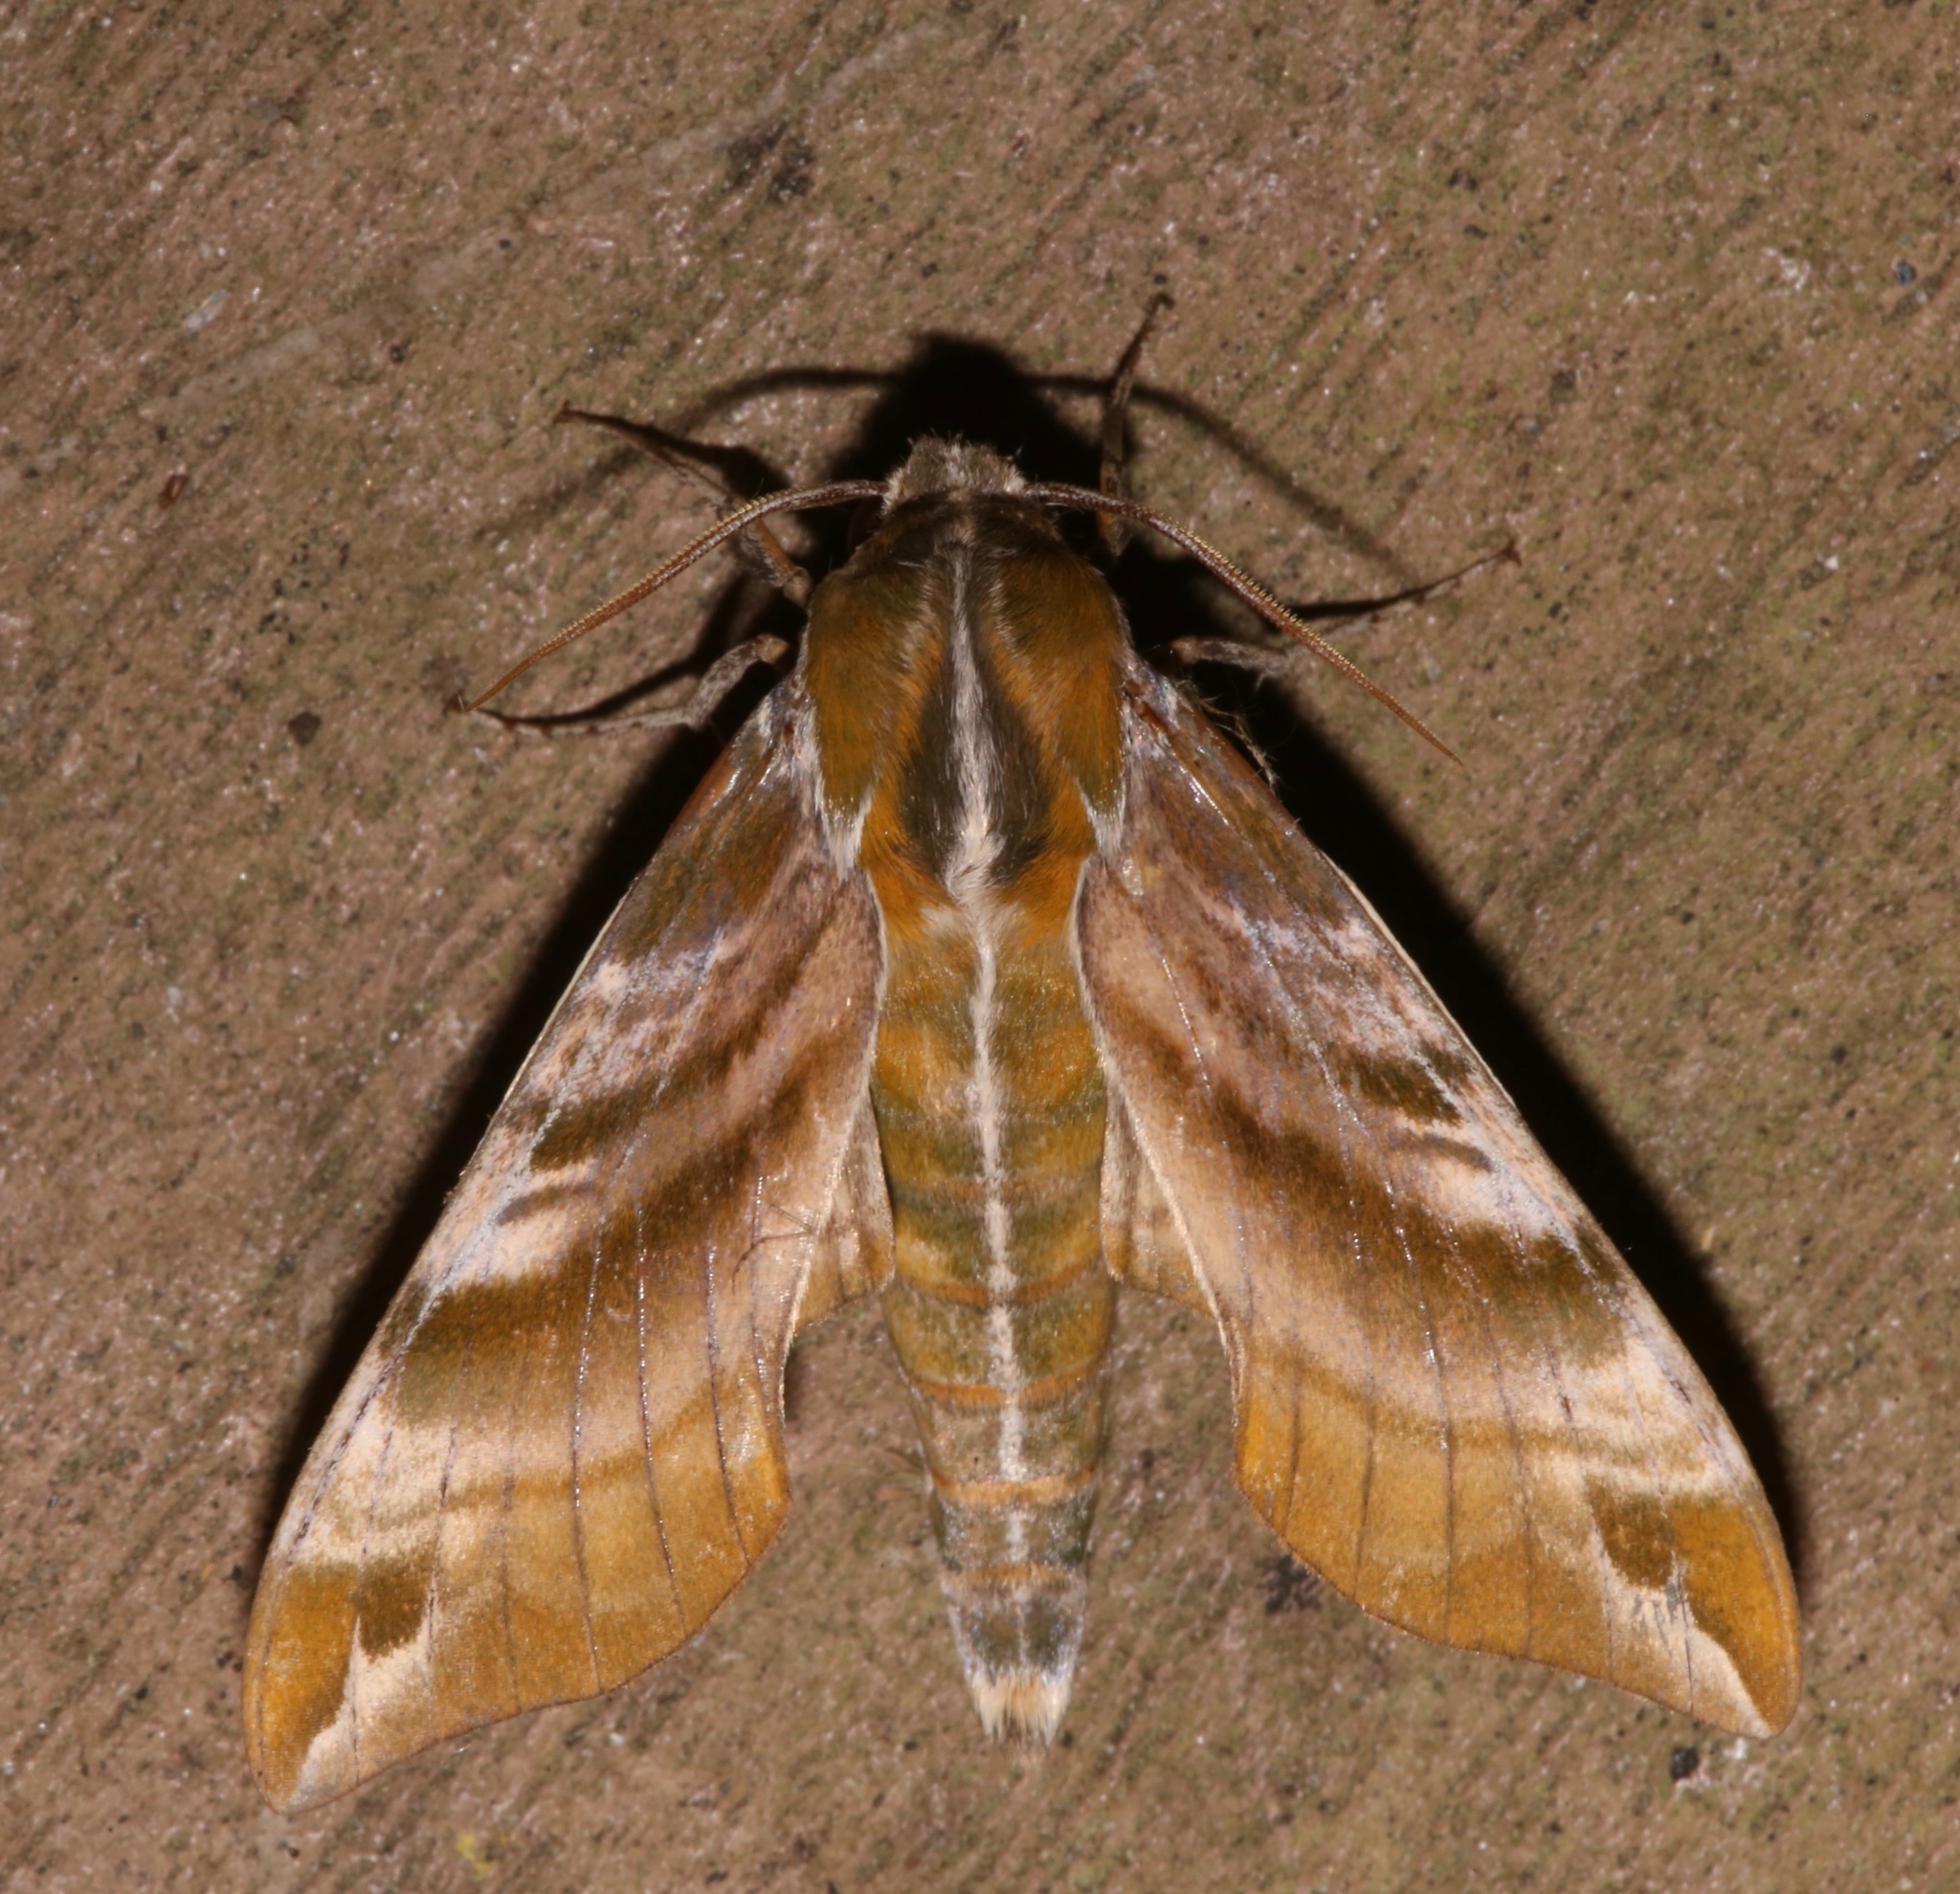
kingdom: Animalia
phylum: Arthropoda
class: Insecta
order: Lepidoptera
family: Sphingidae
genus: Darapsa
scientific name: Darapsa versicolor
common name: Hydrangea sphinx
